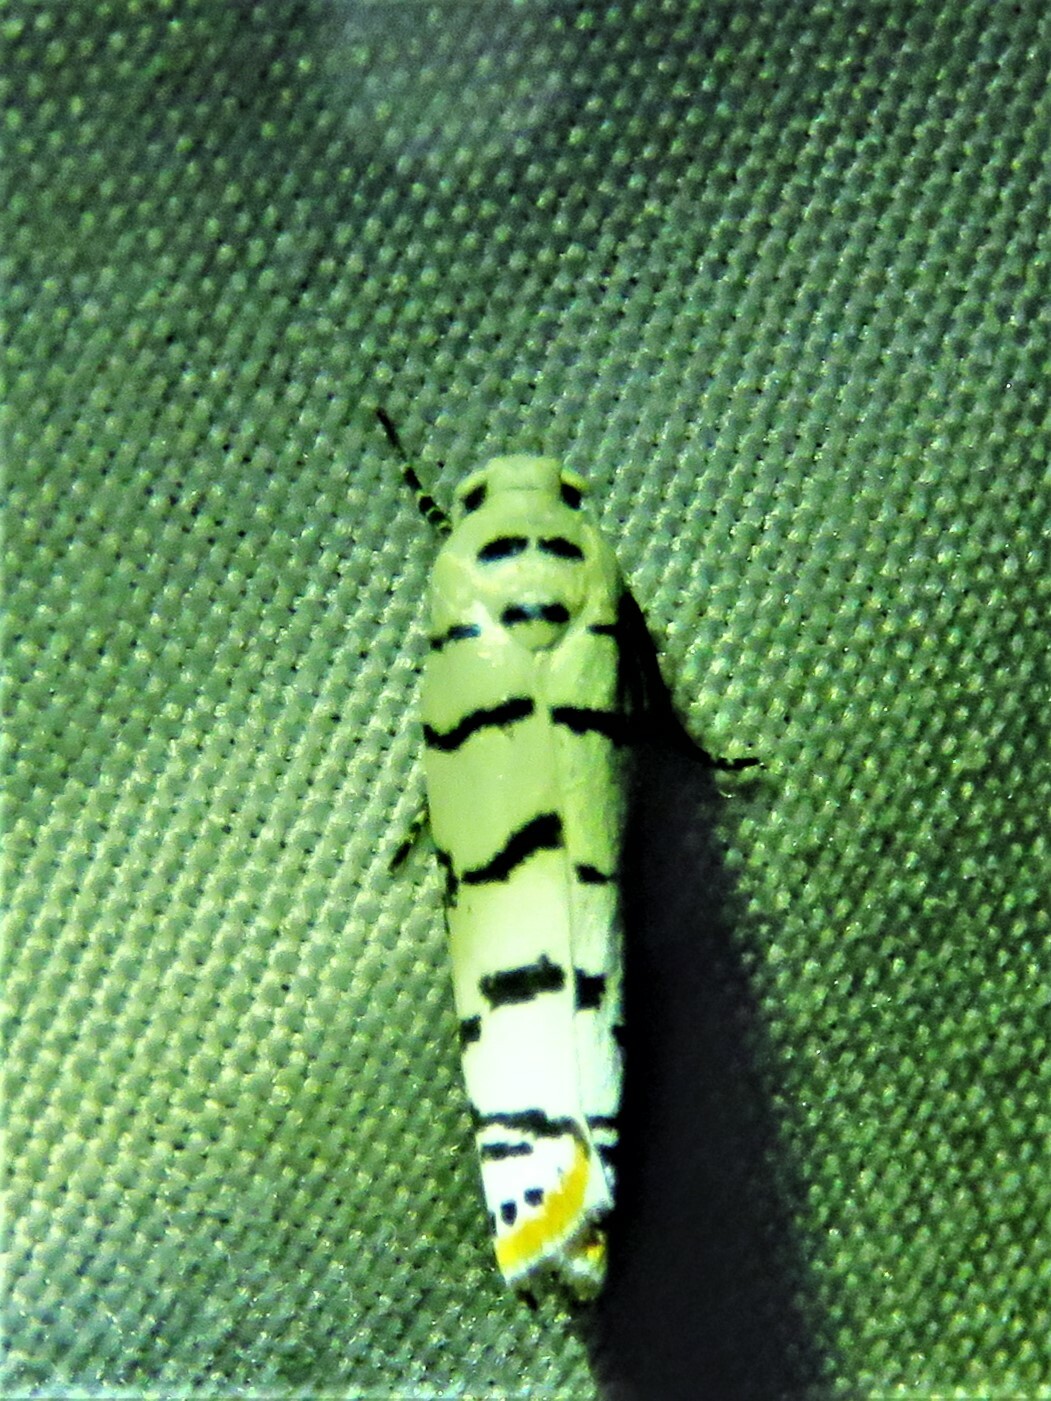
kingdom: Animalia
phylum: Arthropoda
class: Insecta
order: Lepidoptera
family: Ethmiidae
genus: Ethmia
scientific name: Ethmia delliella
